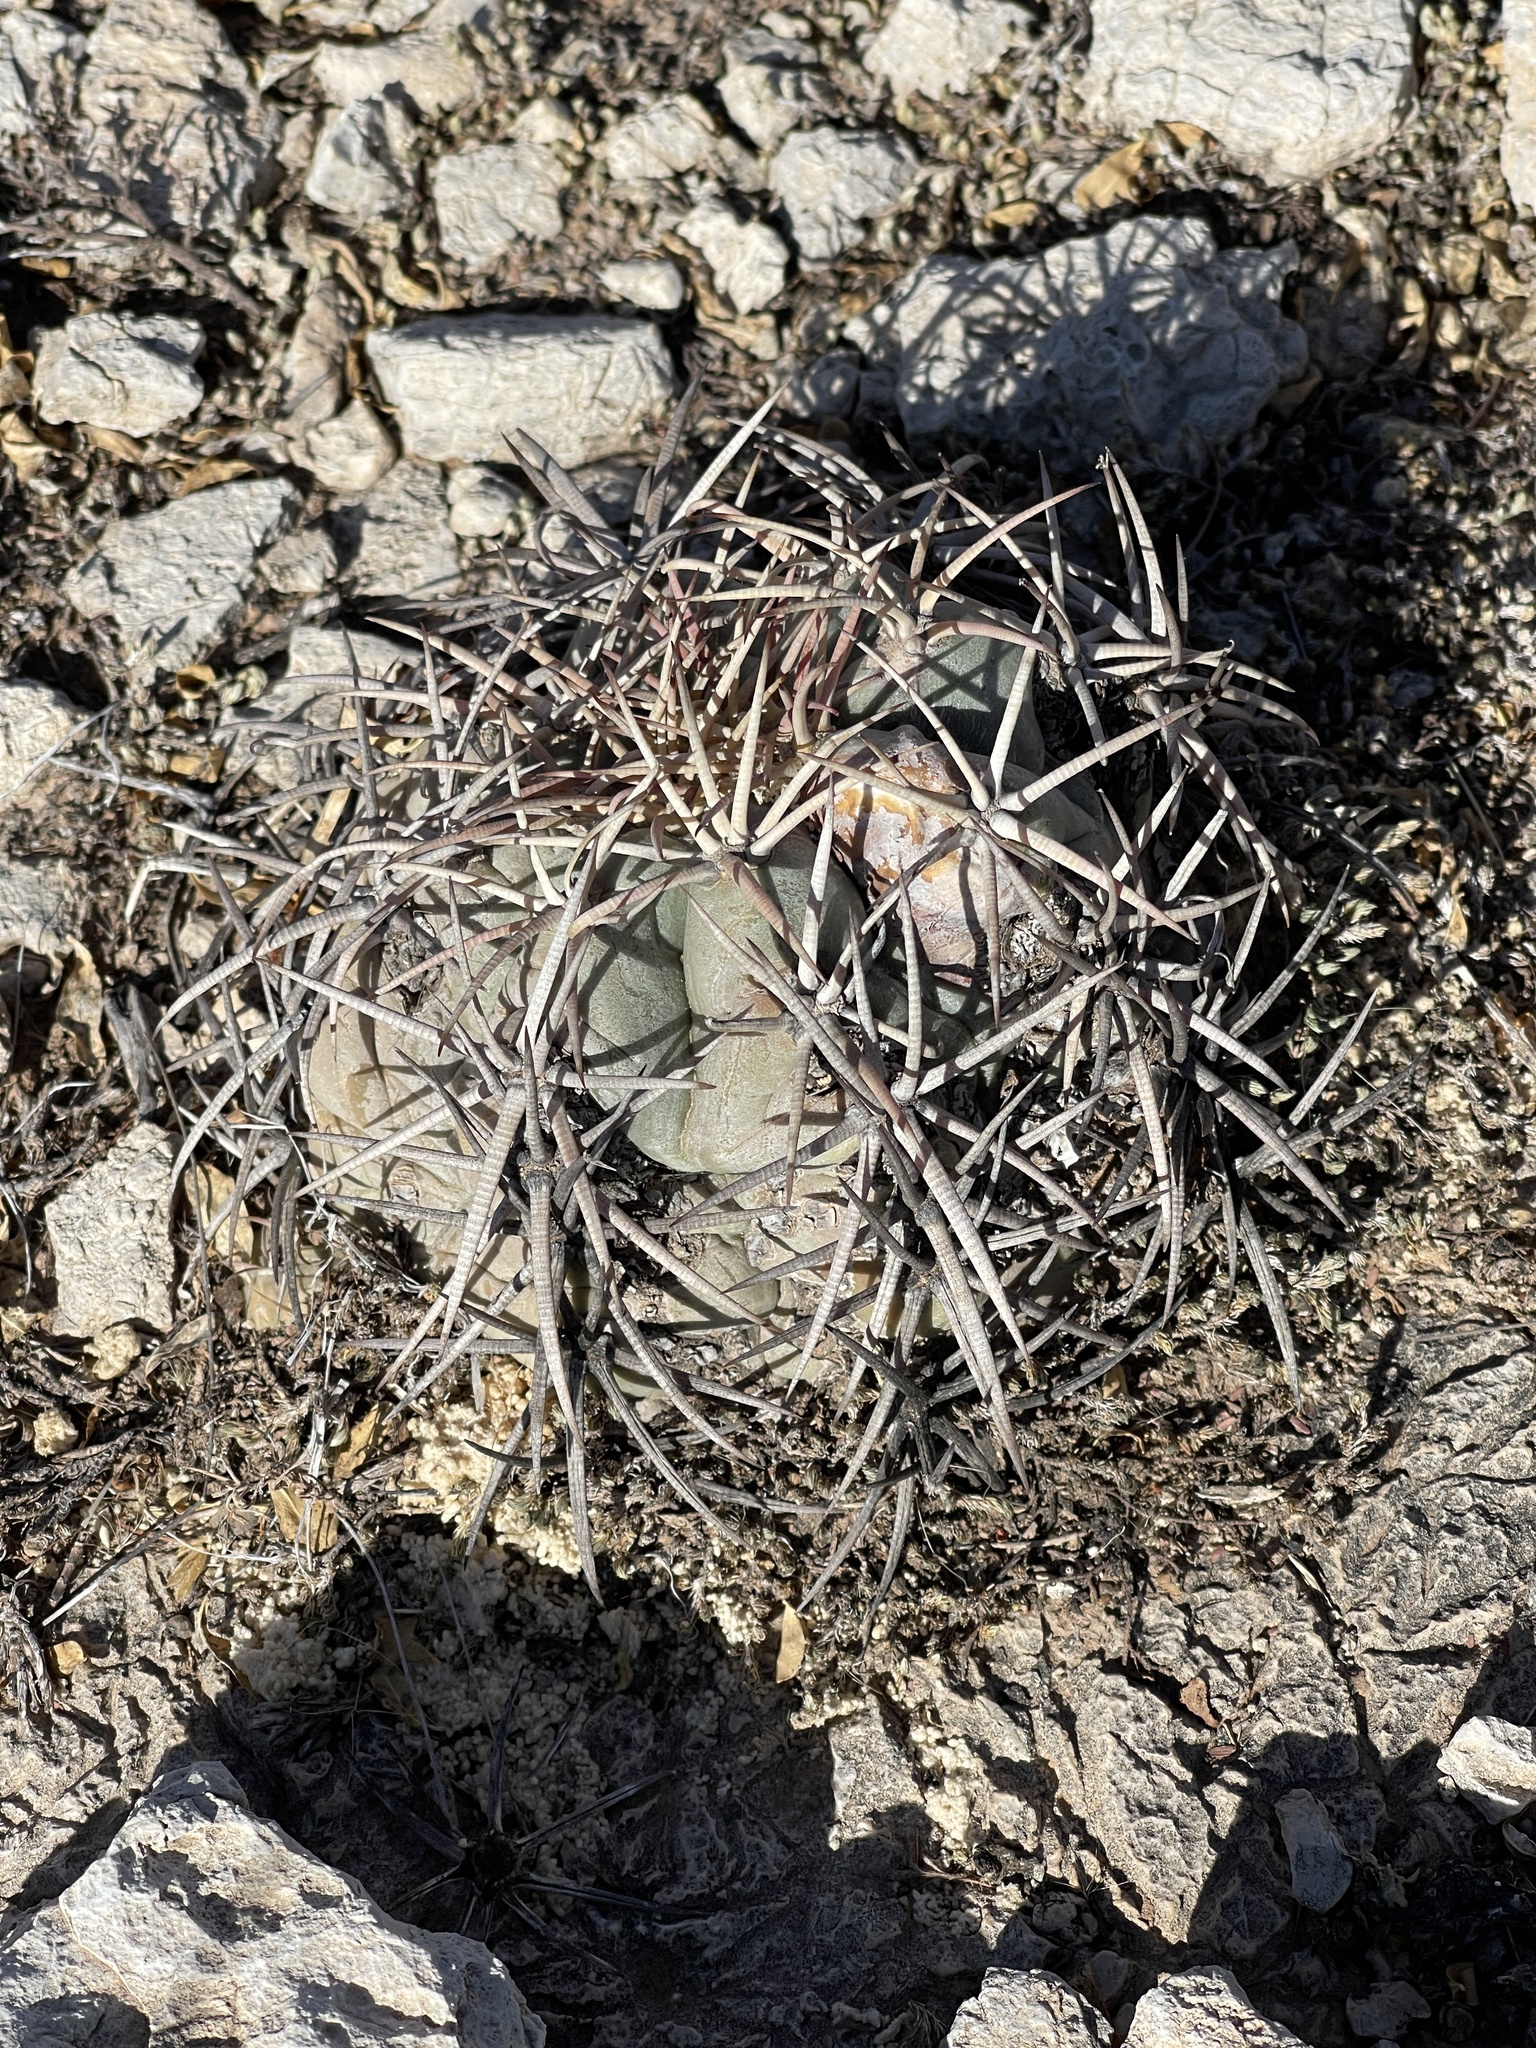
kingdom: Plantae
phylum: Tracheophyta
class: Magnoliopsida
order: Caryophyllales
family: Cactaceae
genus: Echinocactus
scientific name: Echinocactus horizonthalonius
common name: Devilshead
